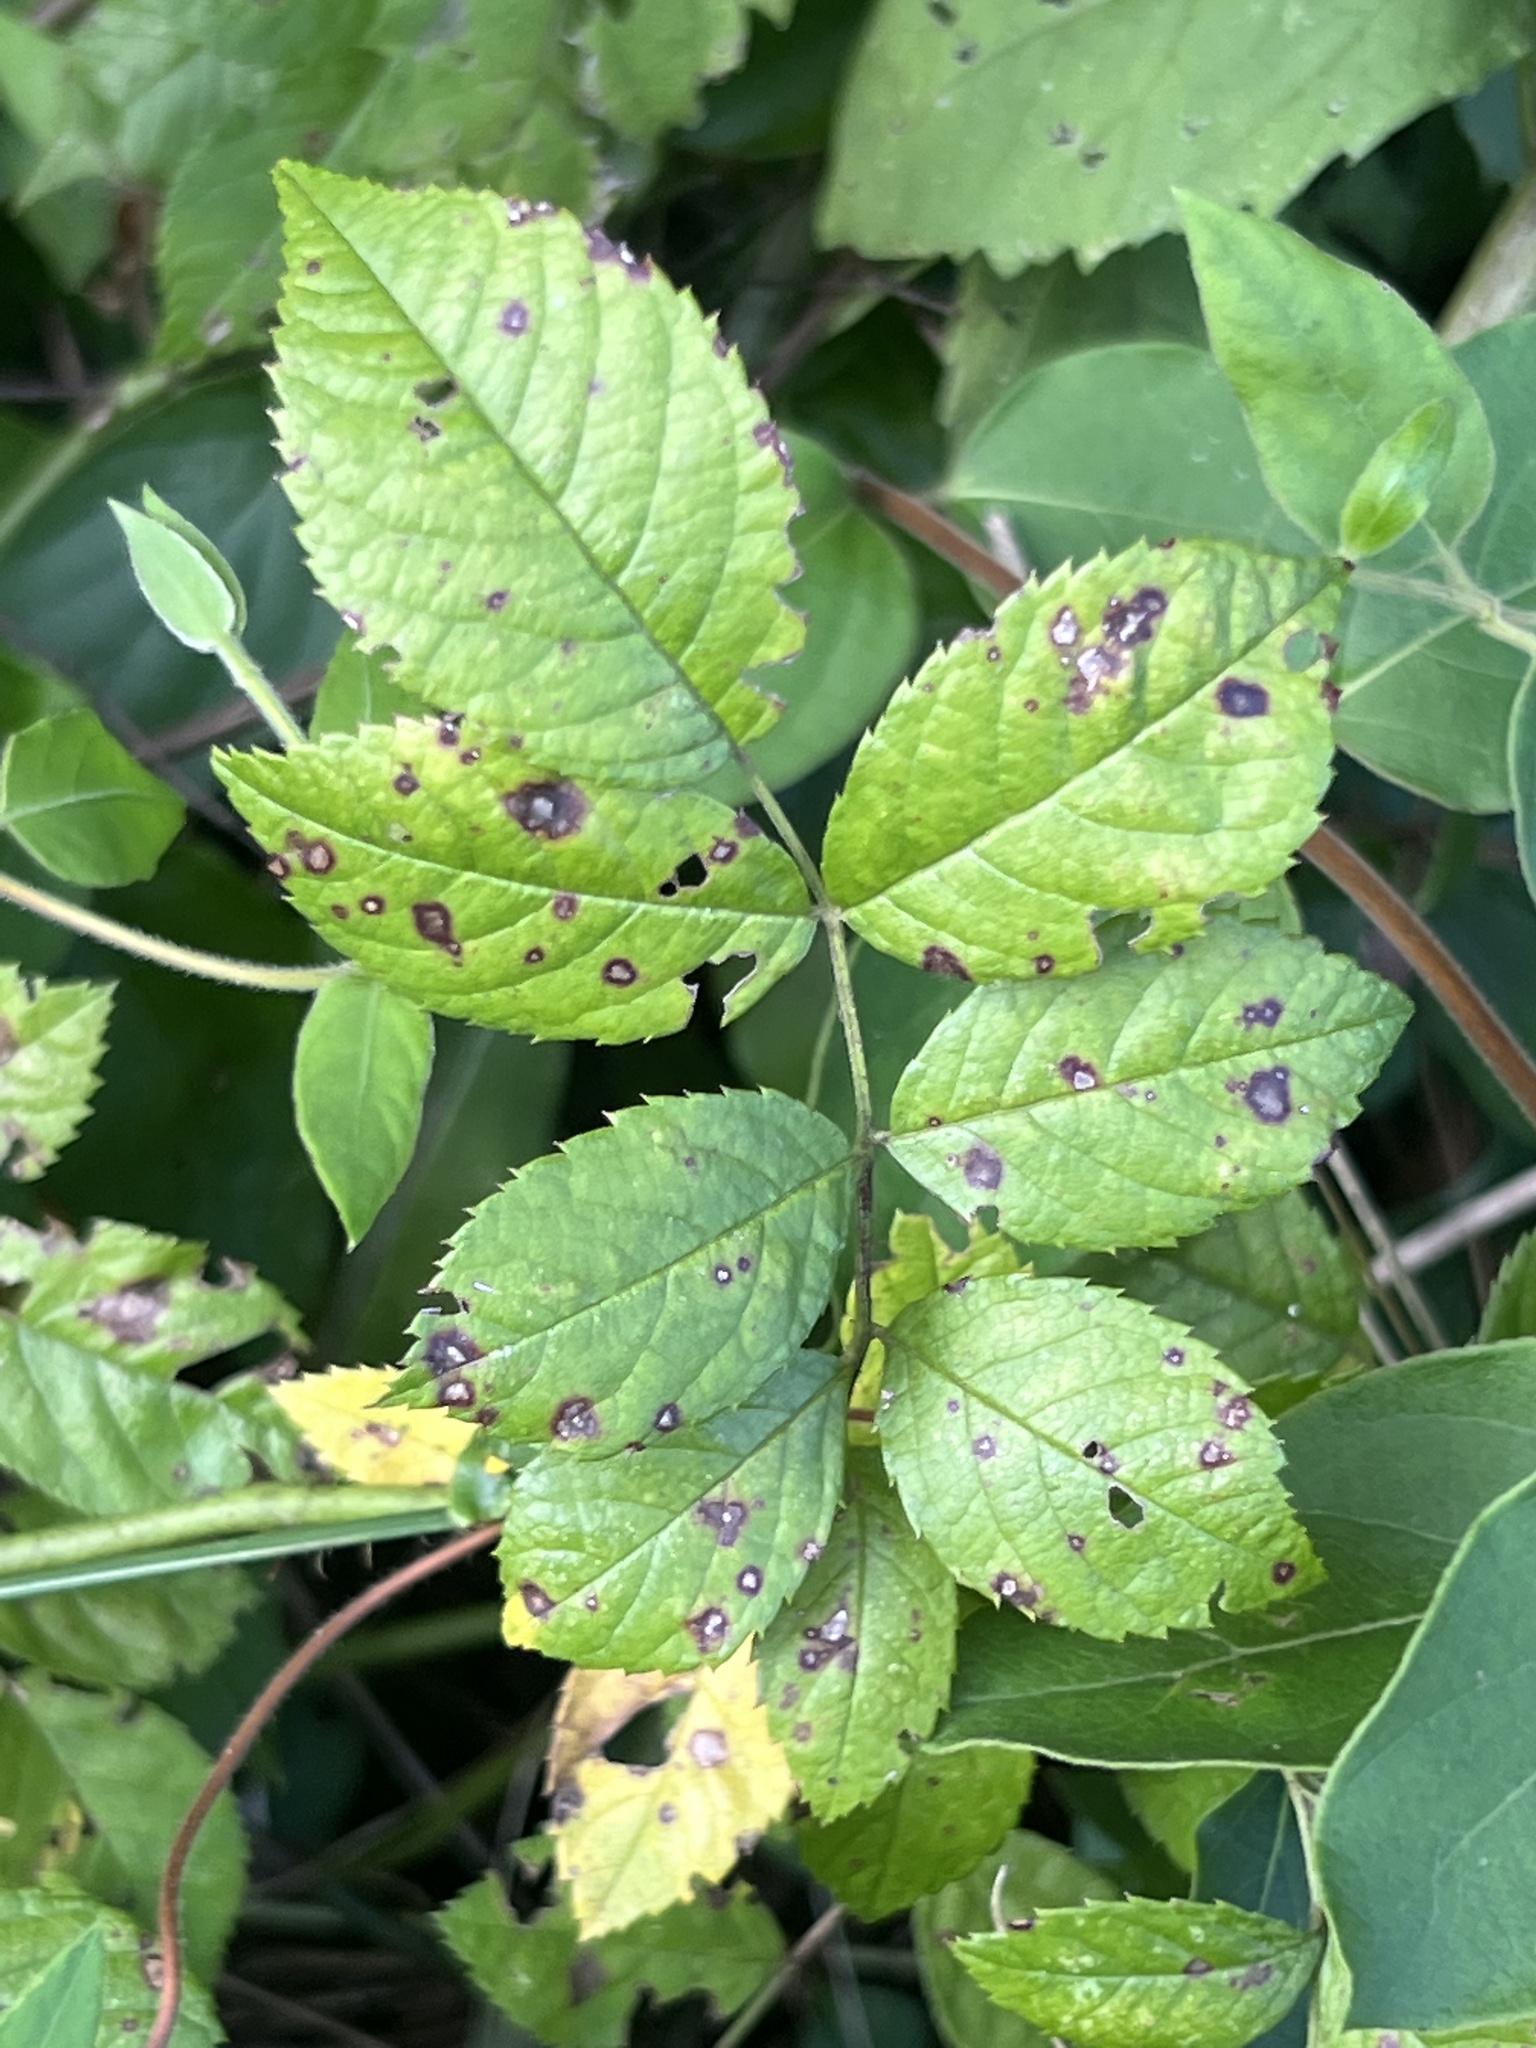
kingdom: Fungi
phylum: Ascomycota
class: Leotiomycetes
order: Helotiales
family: Drepanopezizaceae
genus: Diplocarpon
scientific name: Diplocarpon rosae
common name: Rose black-spot
